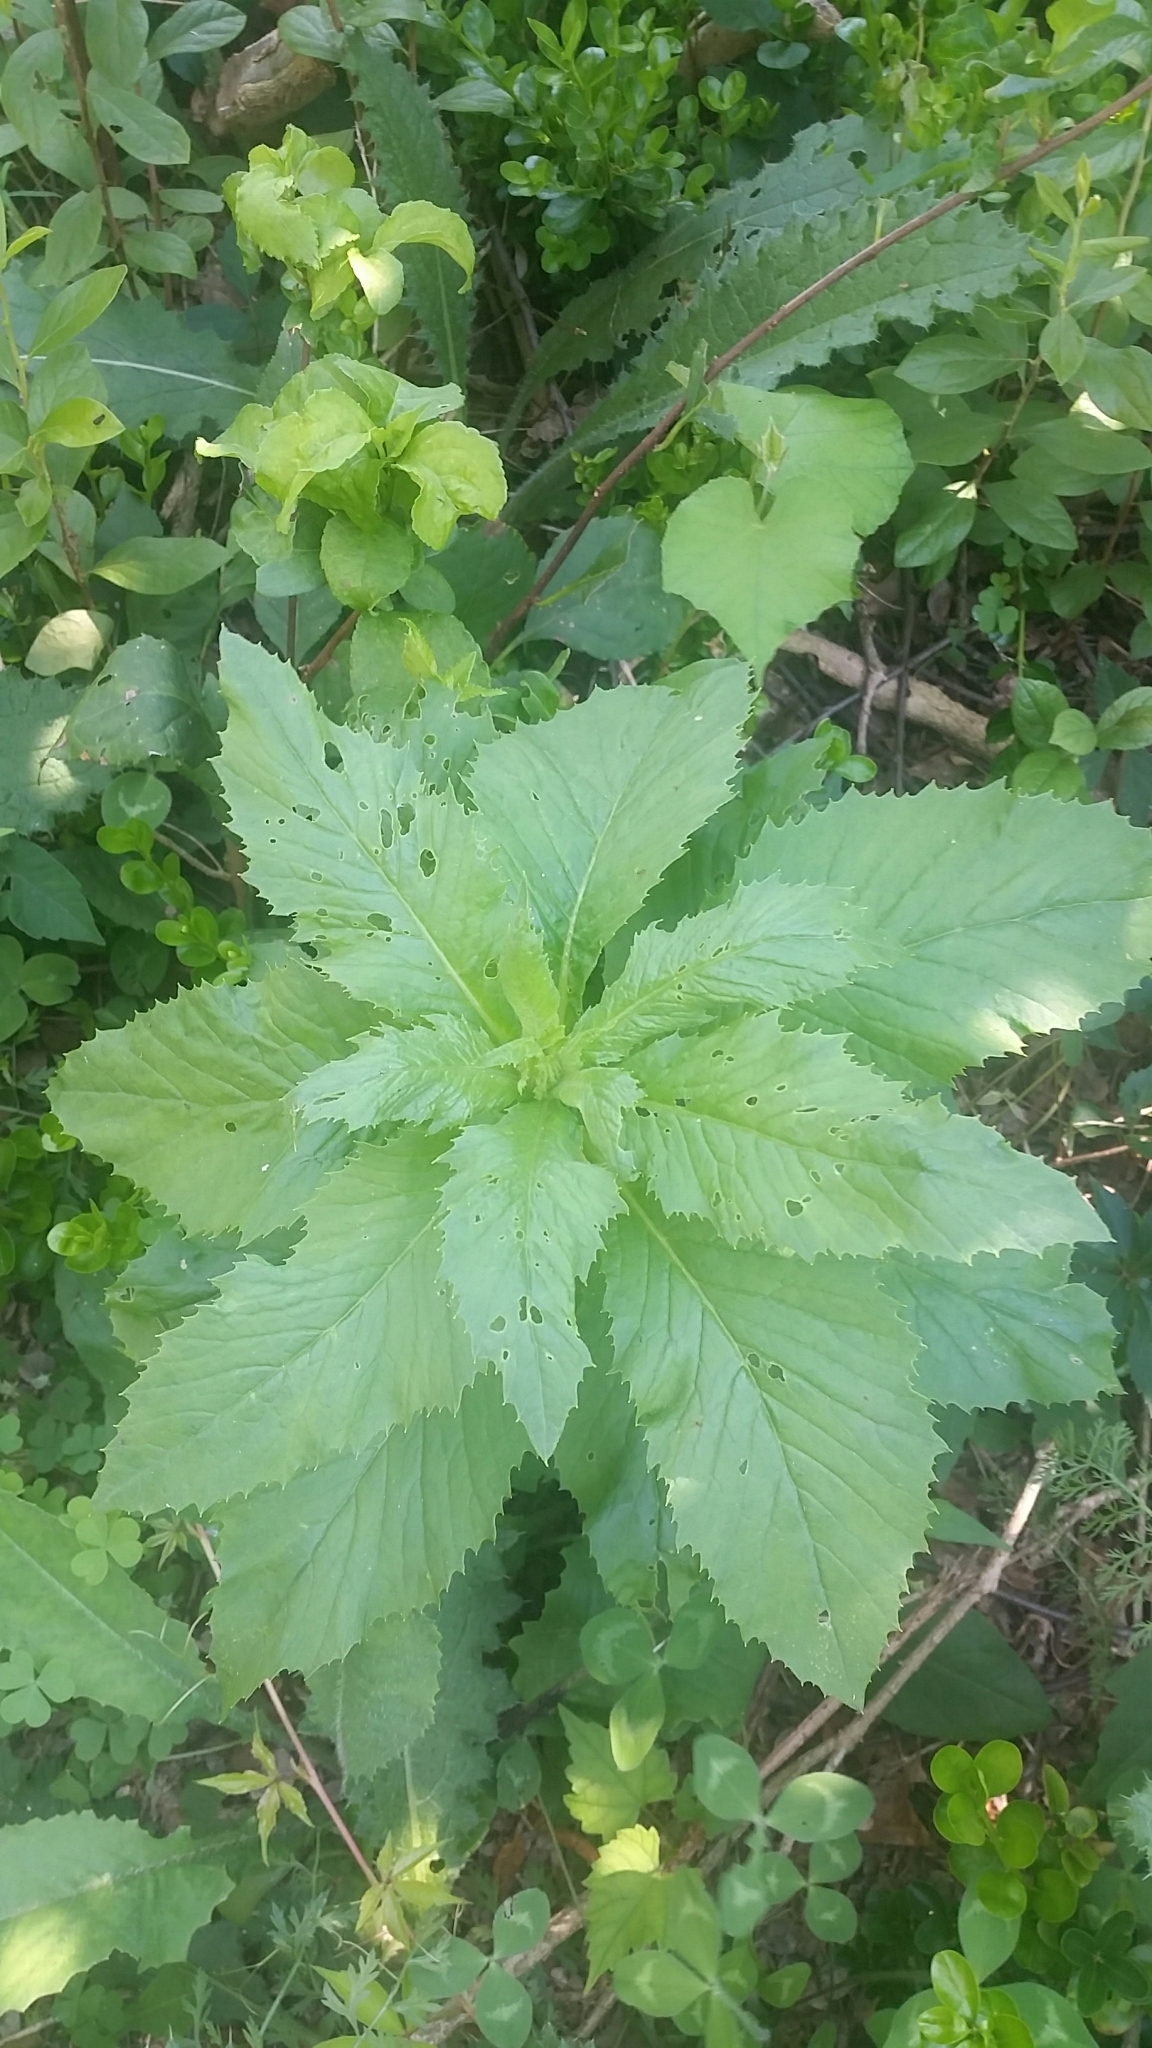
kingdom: Plantae
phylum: Tracheophyta
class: Magnoliopsida
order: Asterales
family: Asteraceae
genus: Erechtites
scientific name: Erechtites hieraciifolius
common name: American burnweed
